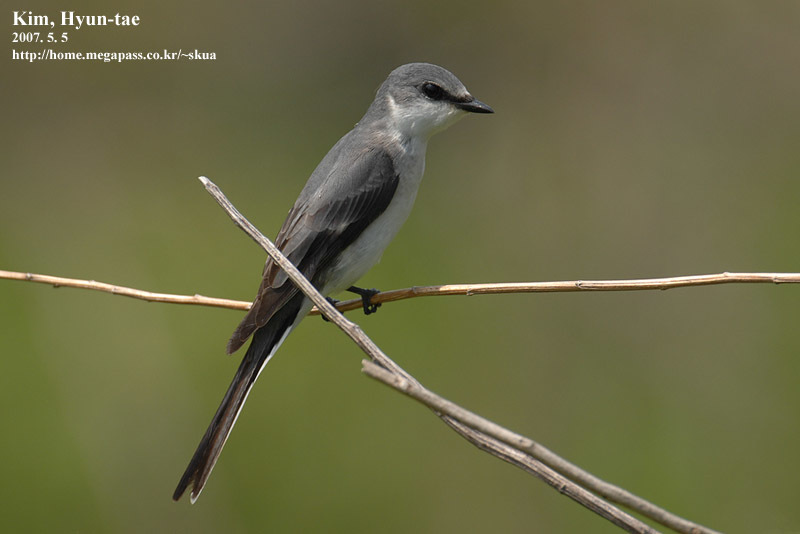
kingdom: Animalia
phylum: Chordata
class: Aves
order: Passeriformes
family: Campephagidae
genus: Pericrocotus
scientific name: Pericrocotus divaricatus
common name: Ashy minivet
